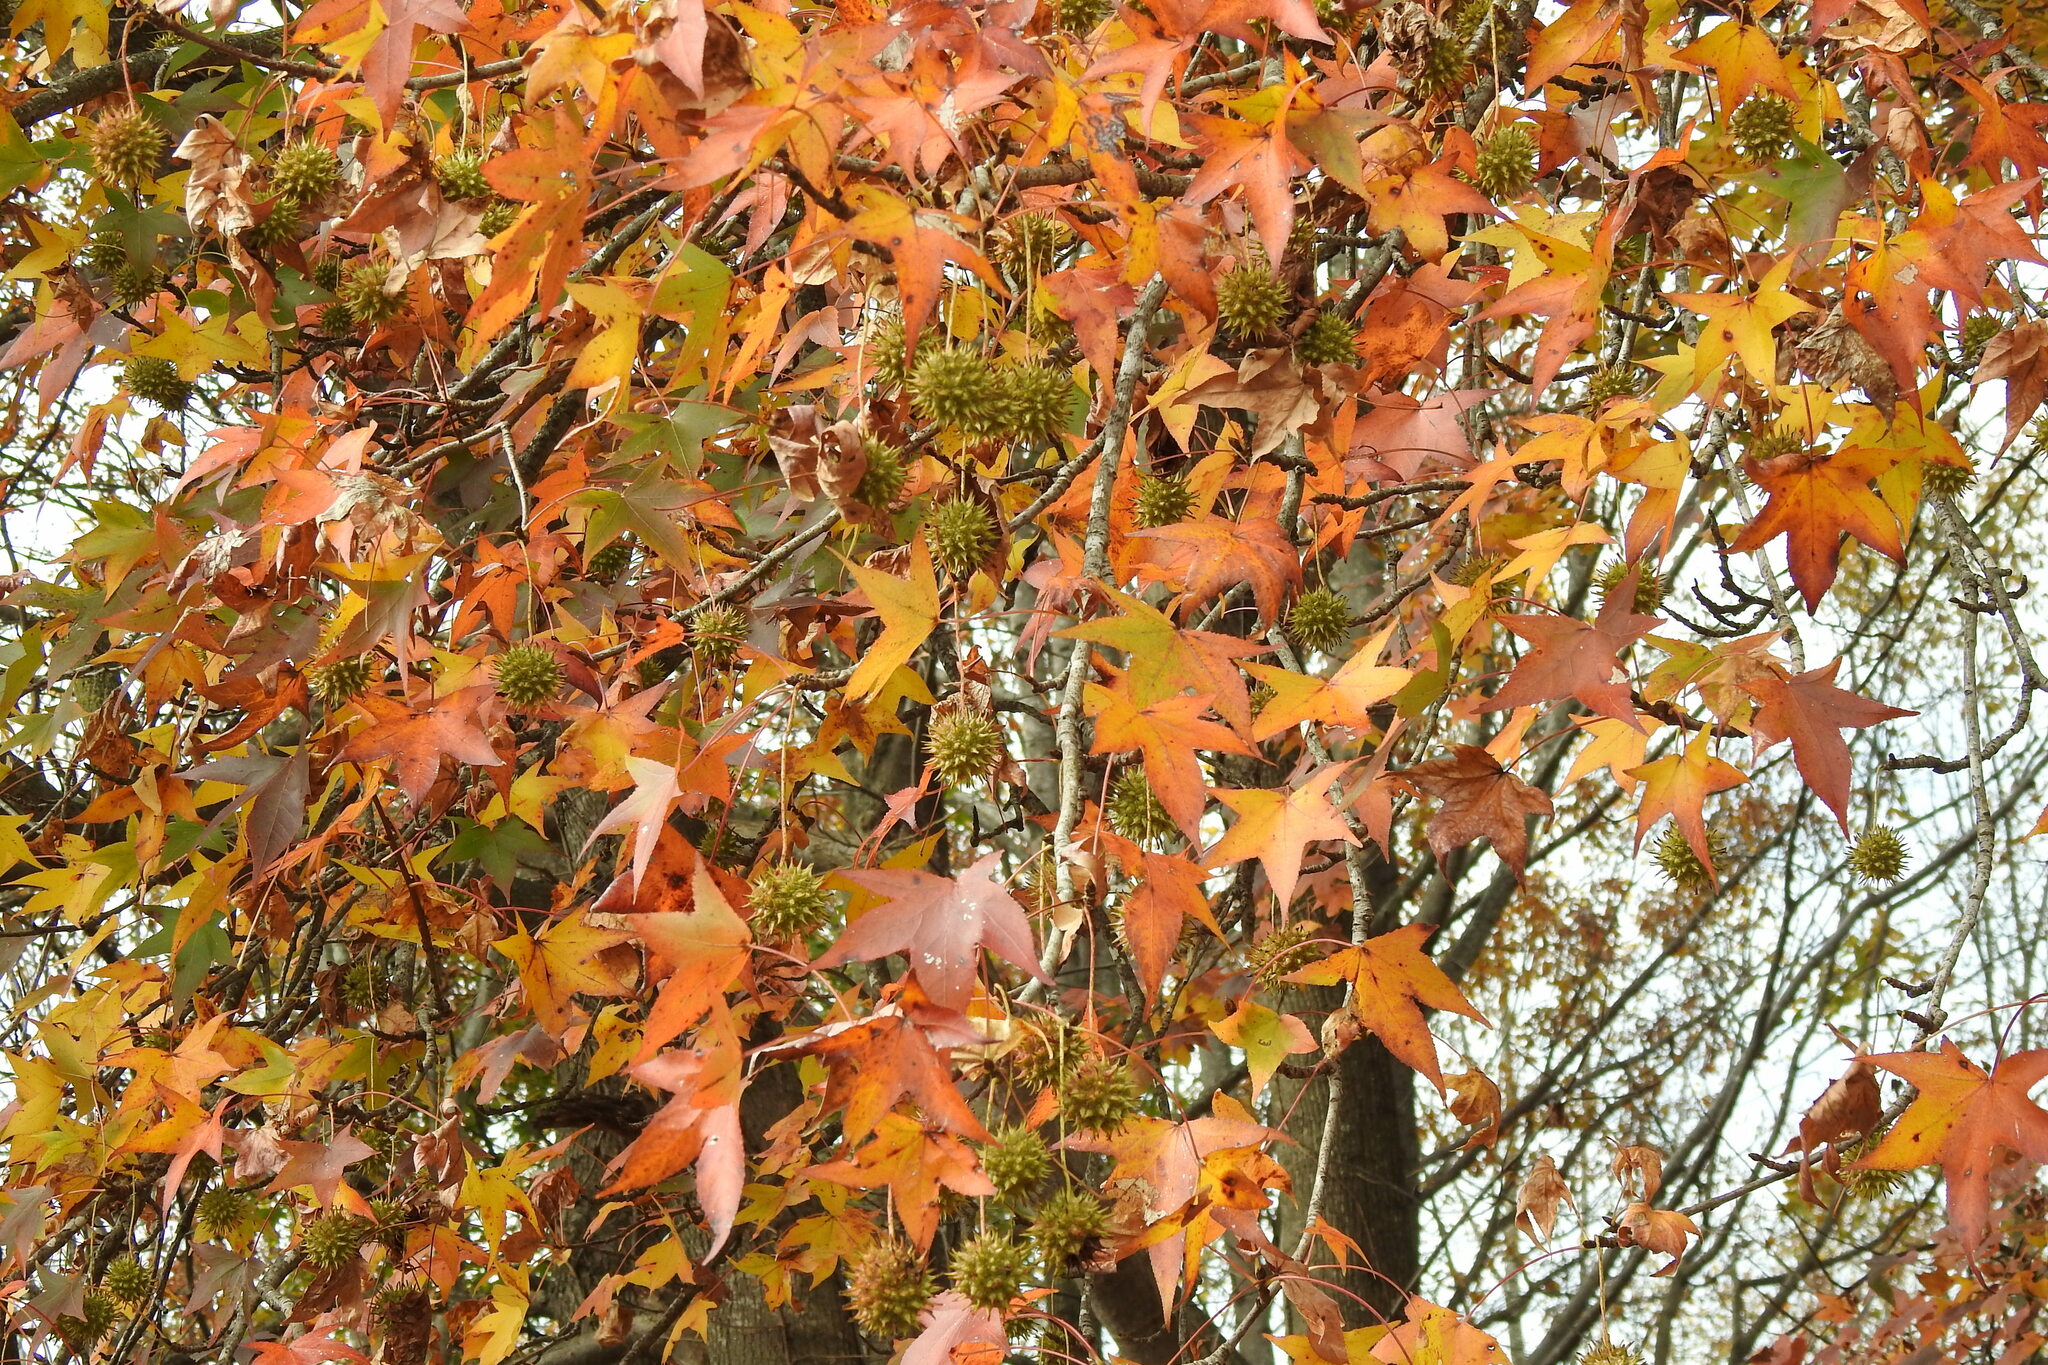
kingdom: Plantae
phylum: Tracheophyta
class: Magnoliopsida
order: Saxifragales
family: Altingiaceae
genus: Liquidambar
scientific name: Liquidambar styraciflua
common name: Sweet gum
